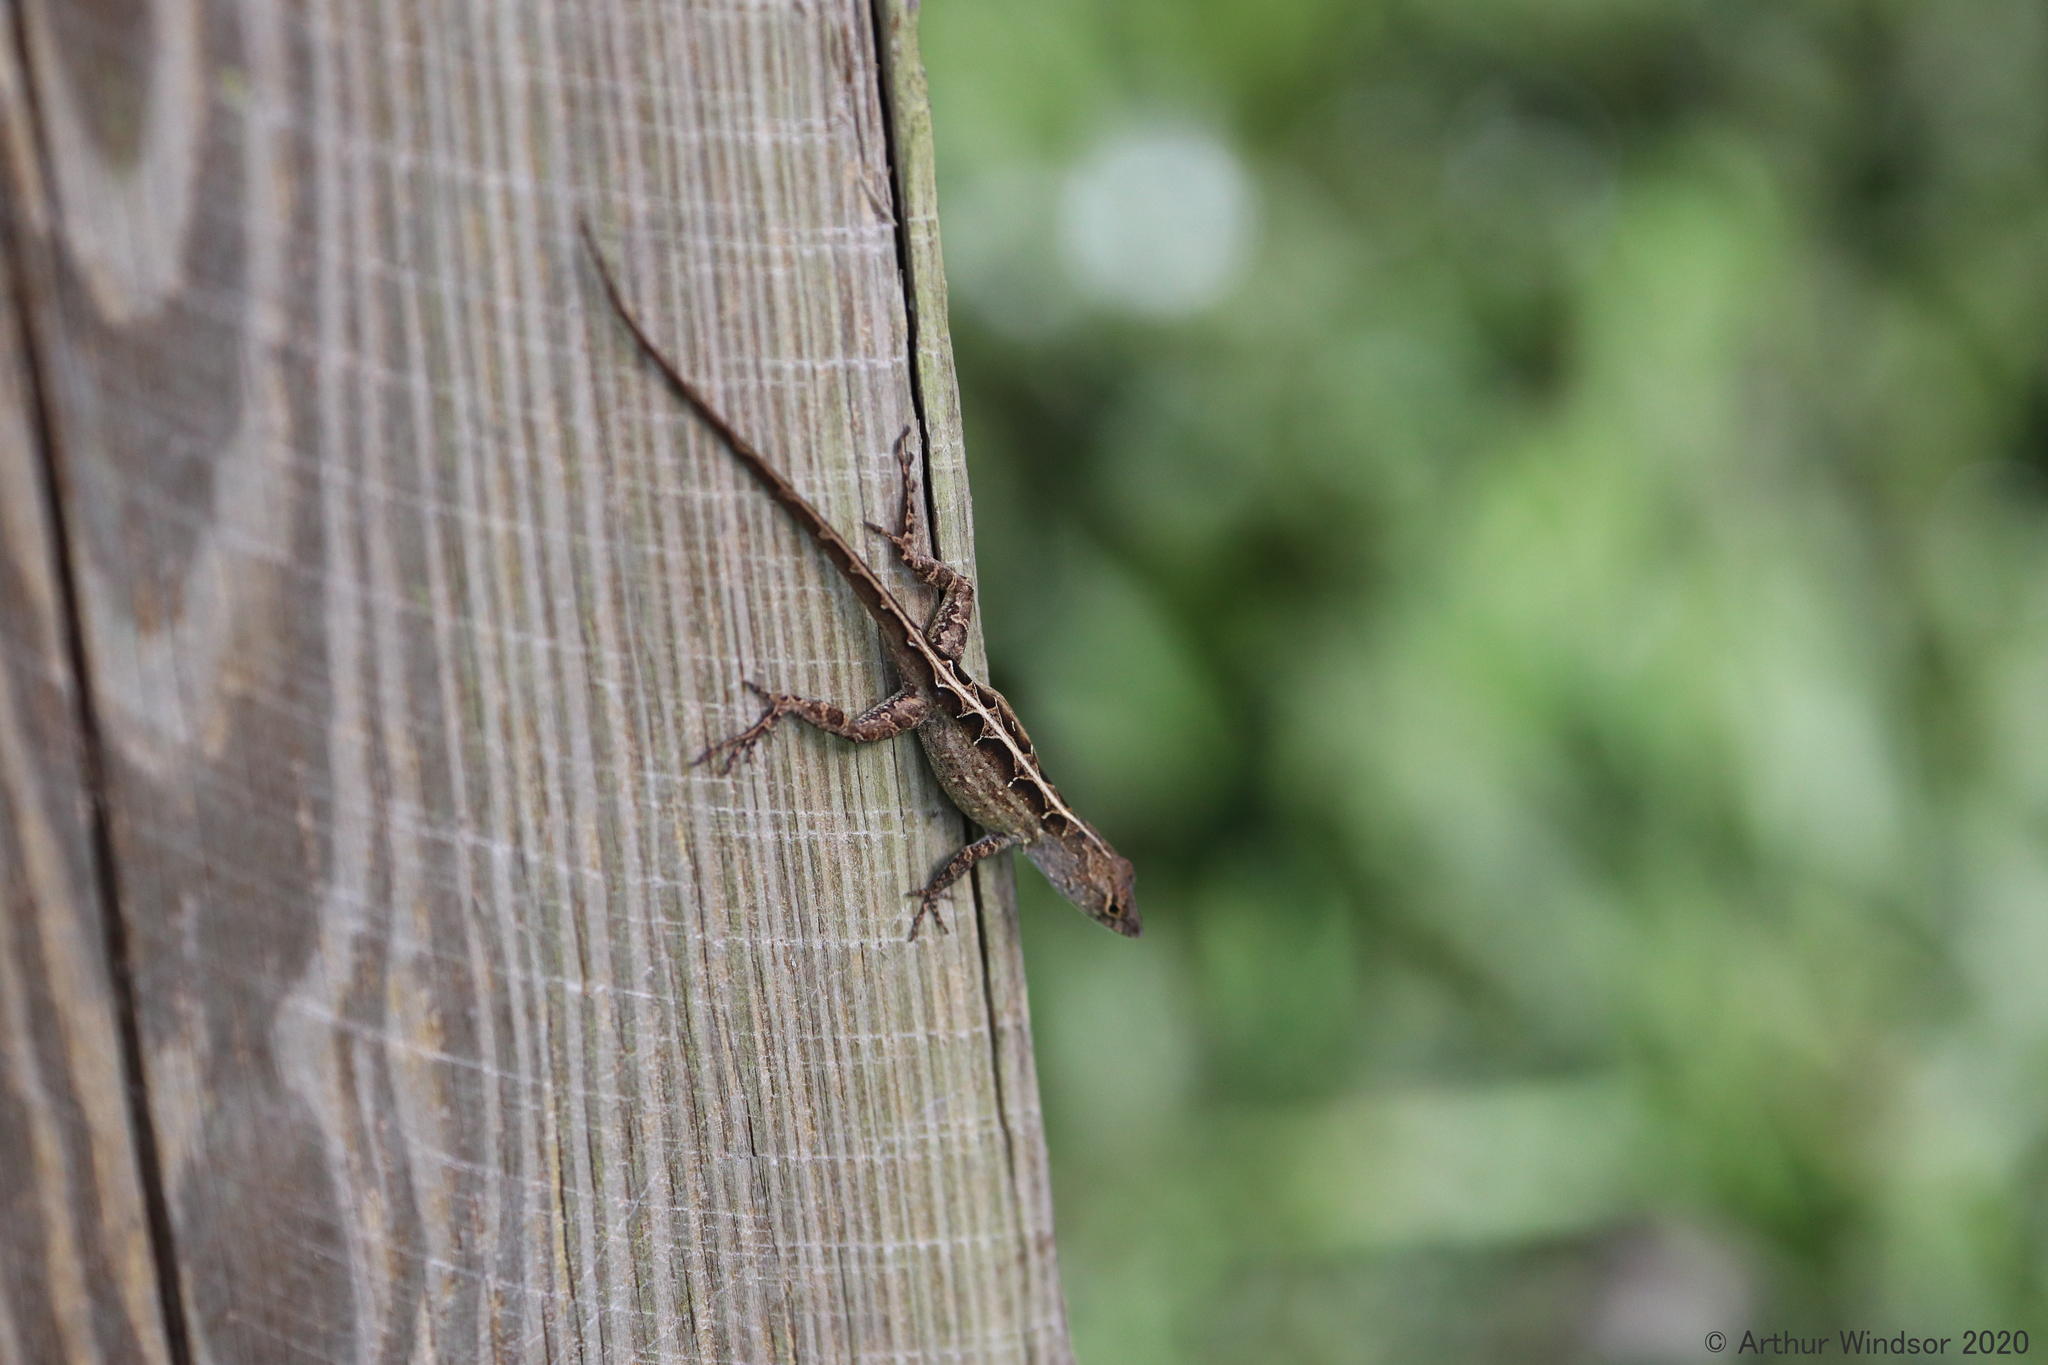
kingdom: Animalia
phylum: Chordata
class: Squamata
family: Dactyloidae
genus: Anolis
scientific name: Anolis sagrei
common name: Brown anole
